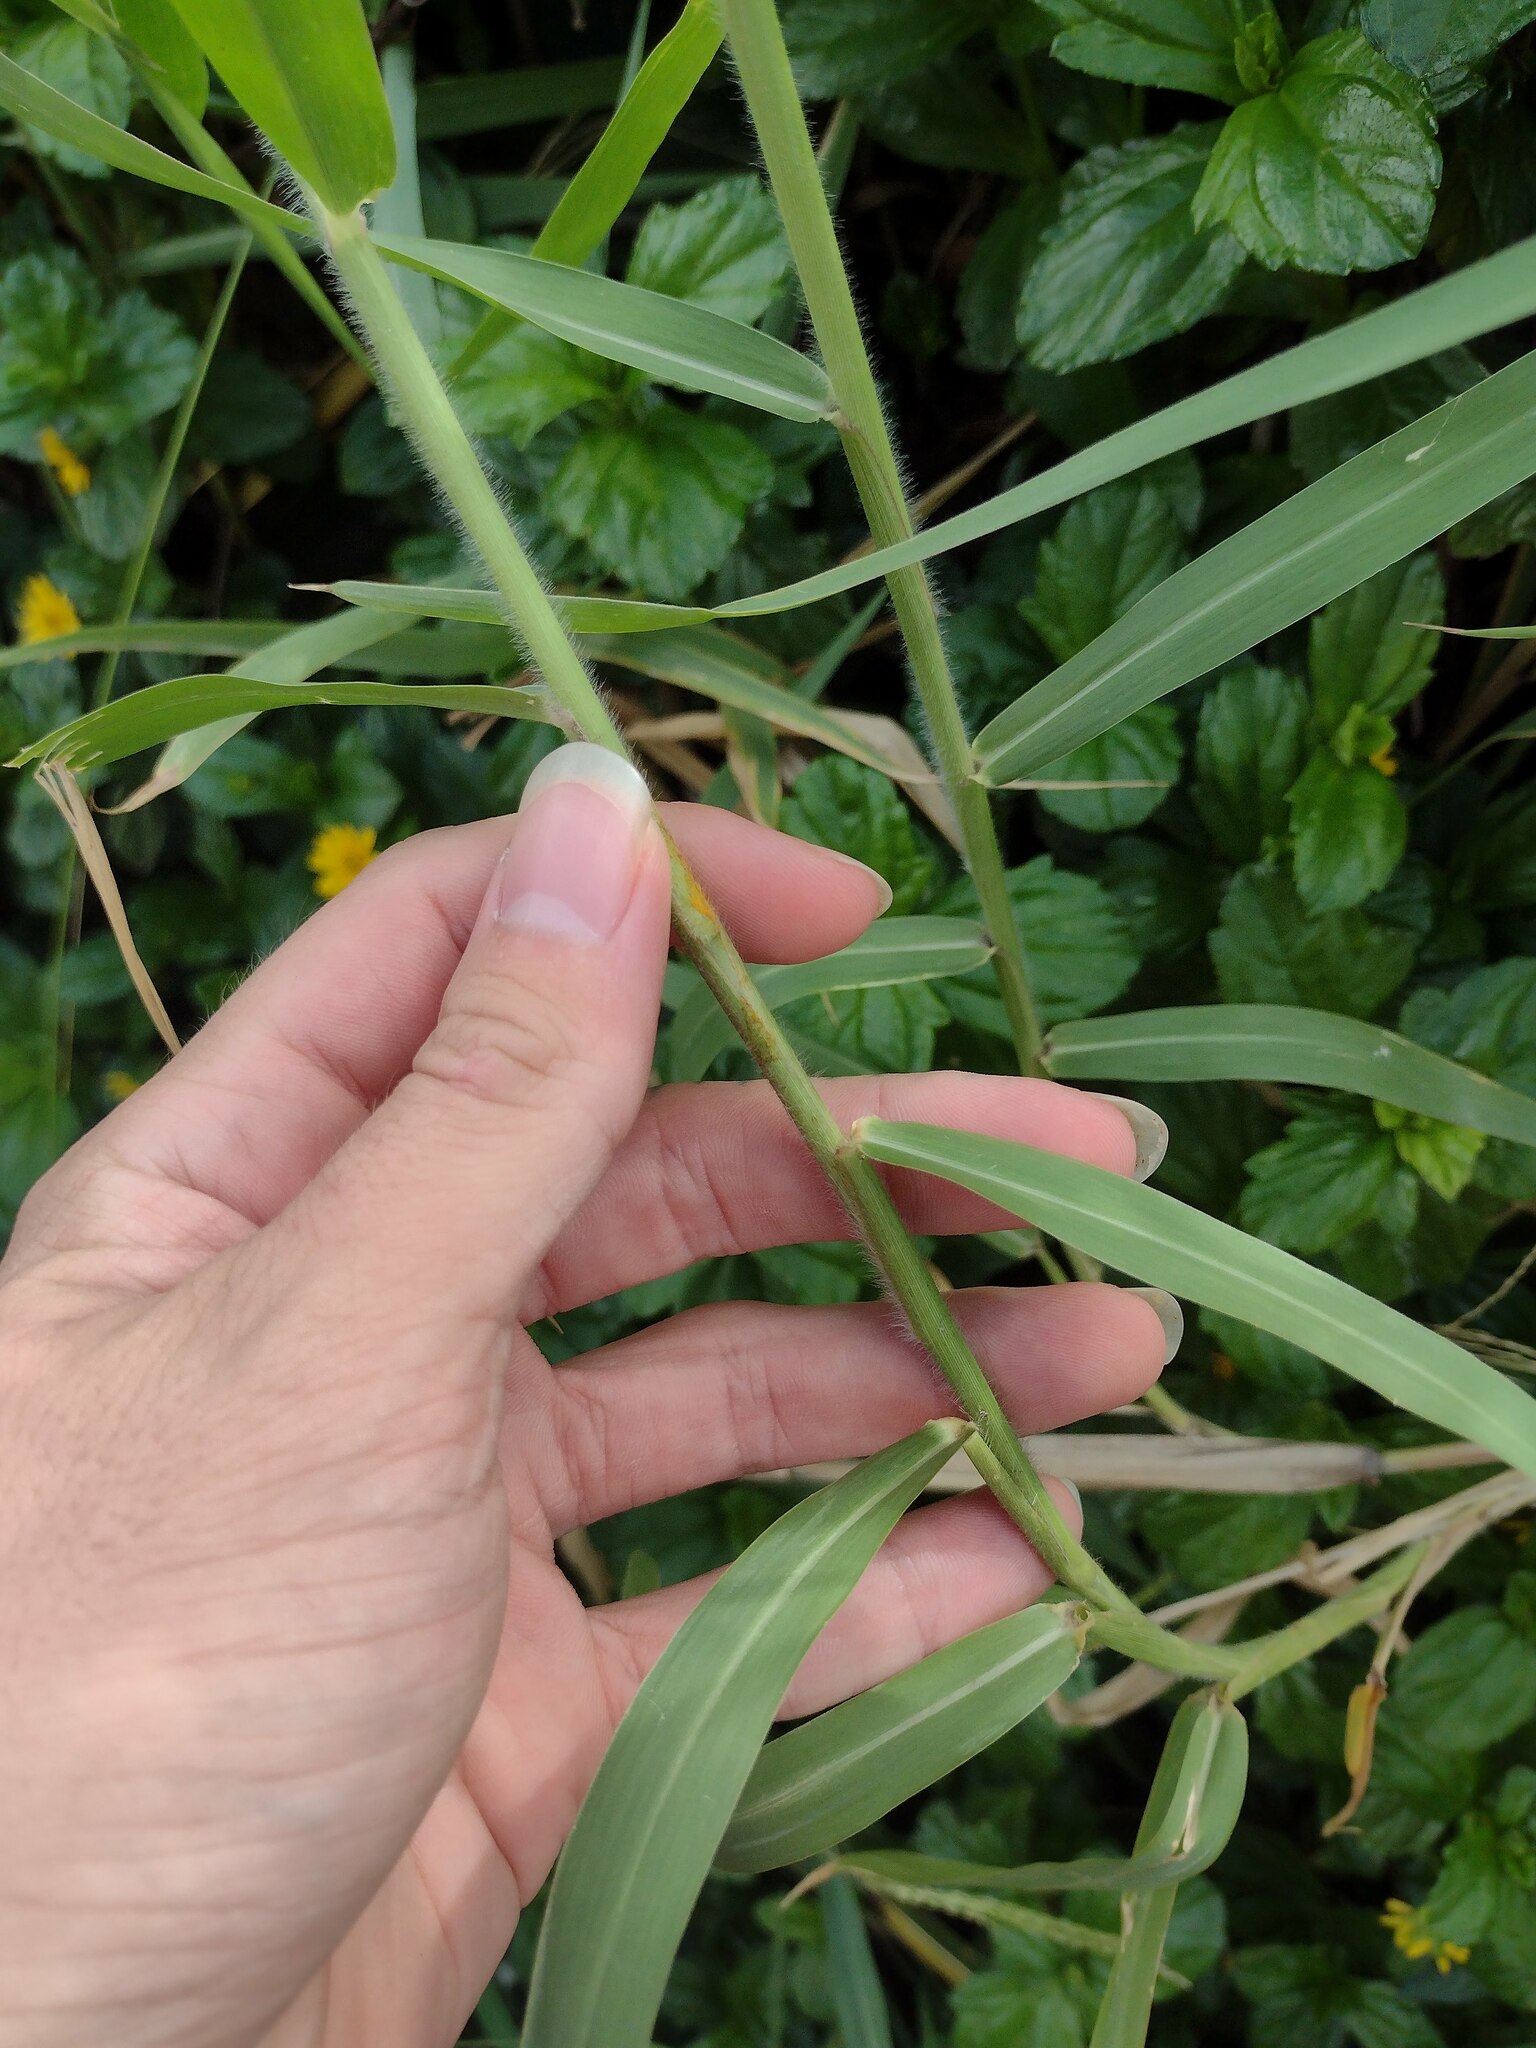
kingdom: Plantae
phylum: Tracheophyta
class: Liliopsida
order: Poales
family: Poaceae
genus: Urochloa
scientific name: Urochloa mutica
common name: Para grass
